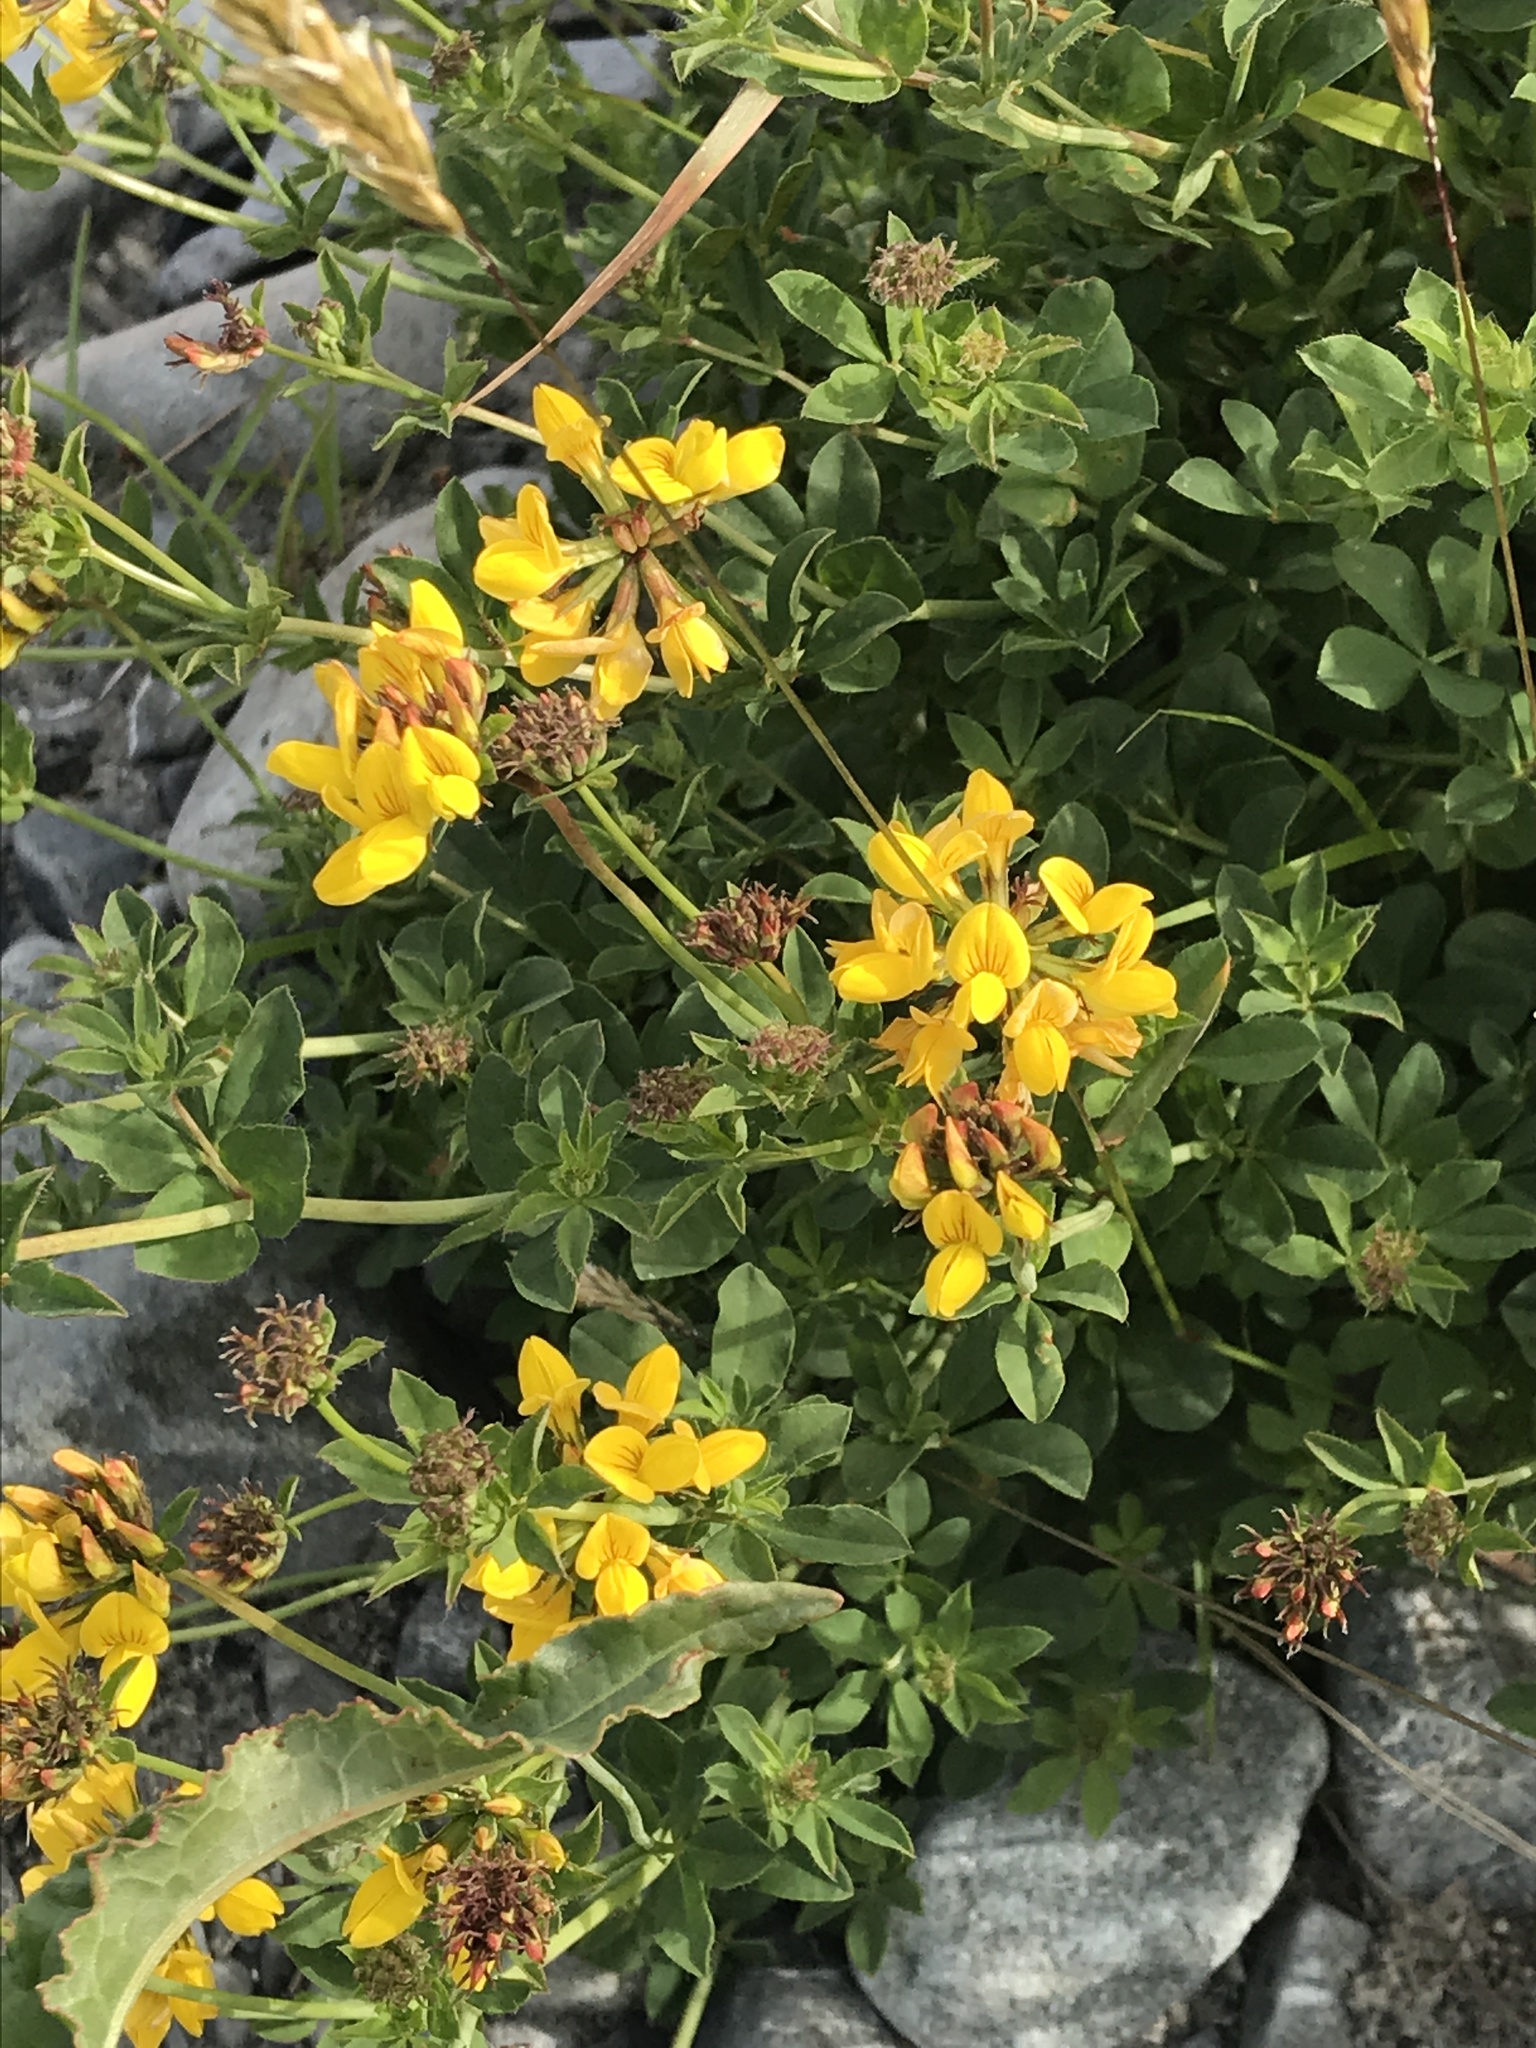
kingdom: Plantae
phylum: Tracheophyta
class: Magnoliopsida
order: Fabales
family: Fabaceae
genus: Lotus
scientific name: Lotus pedunculatus
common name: Greater birdsfoot-trefoil
